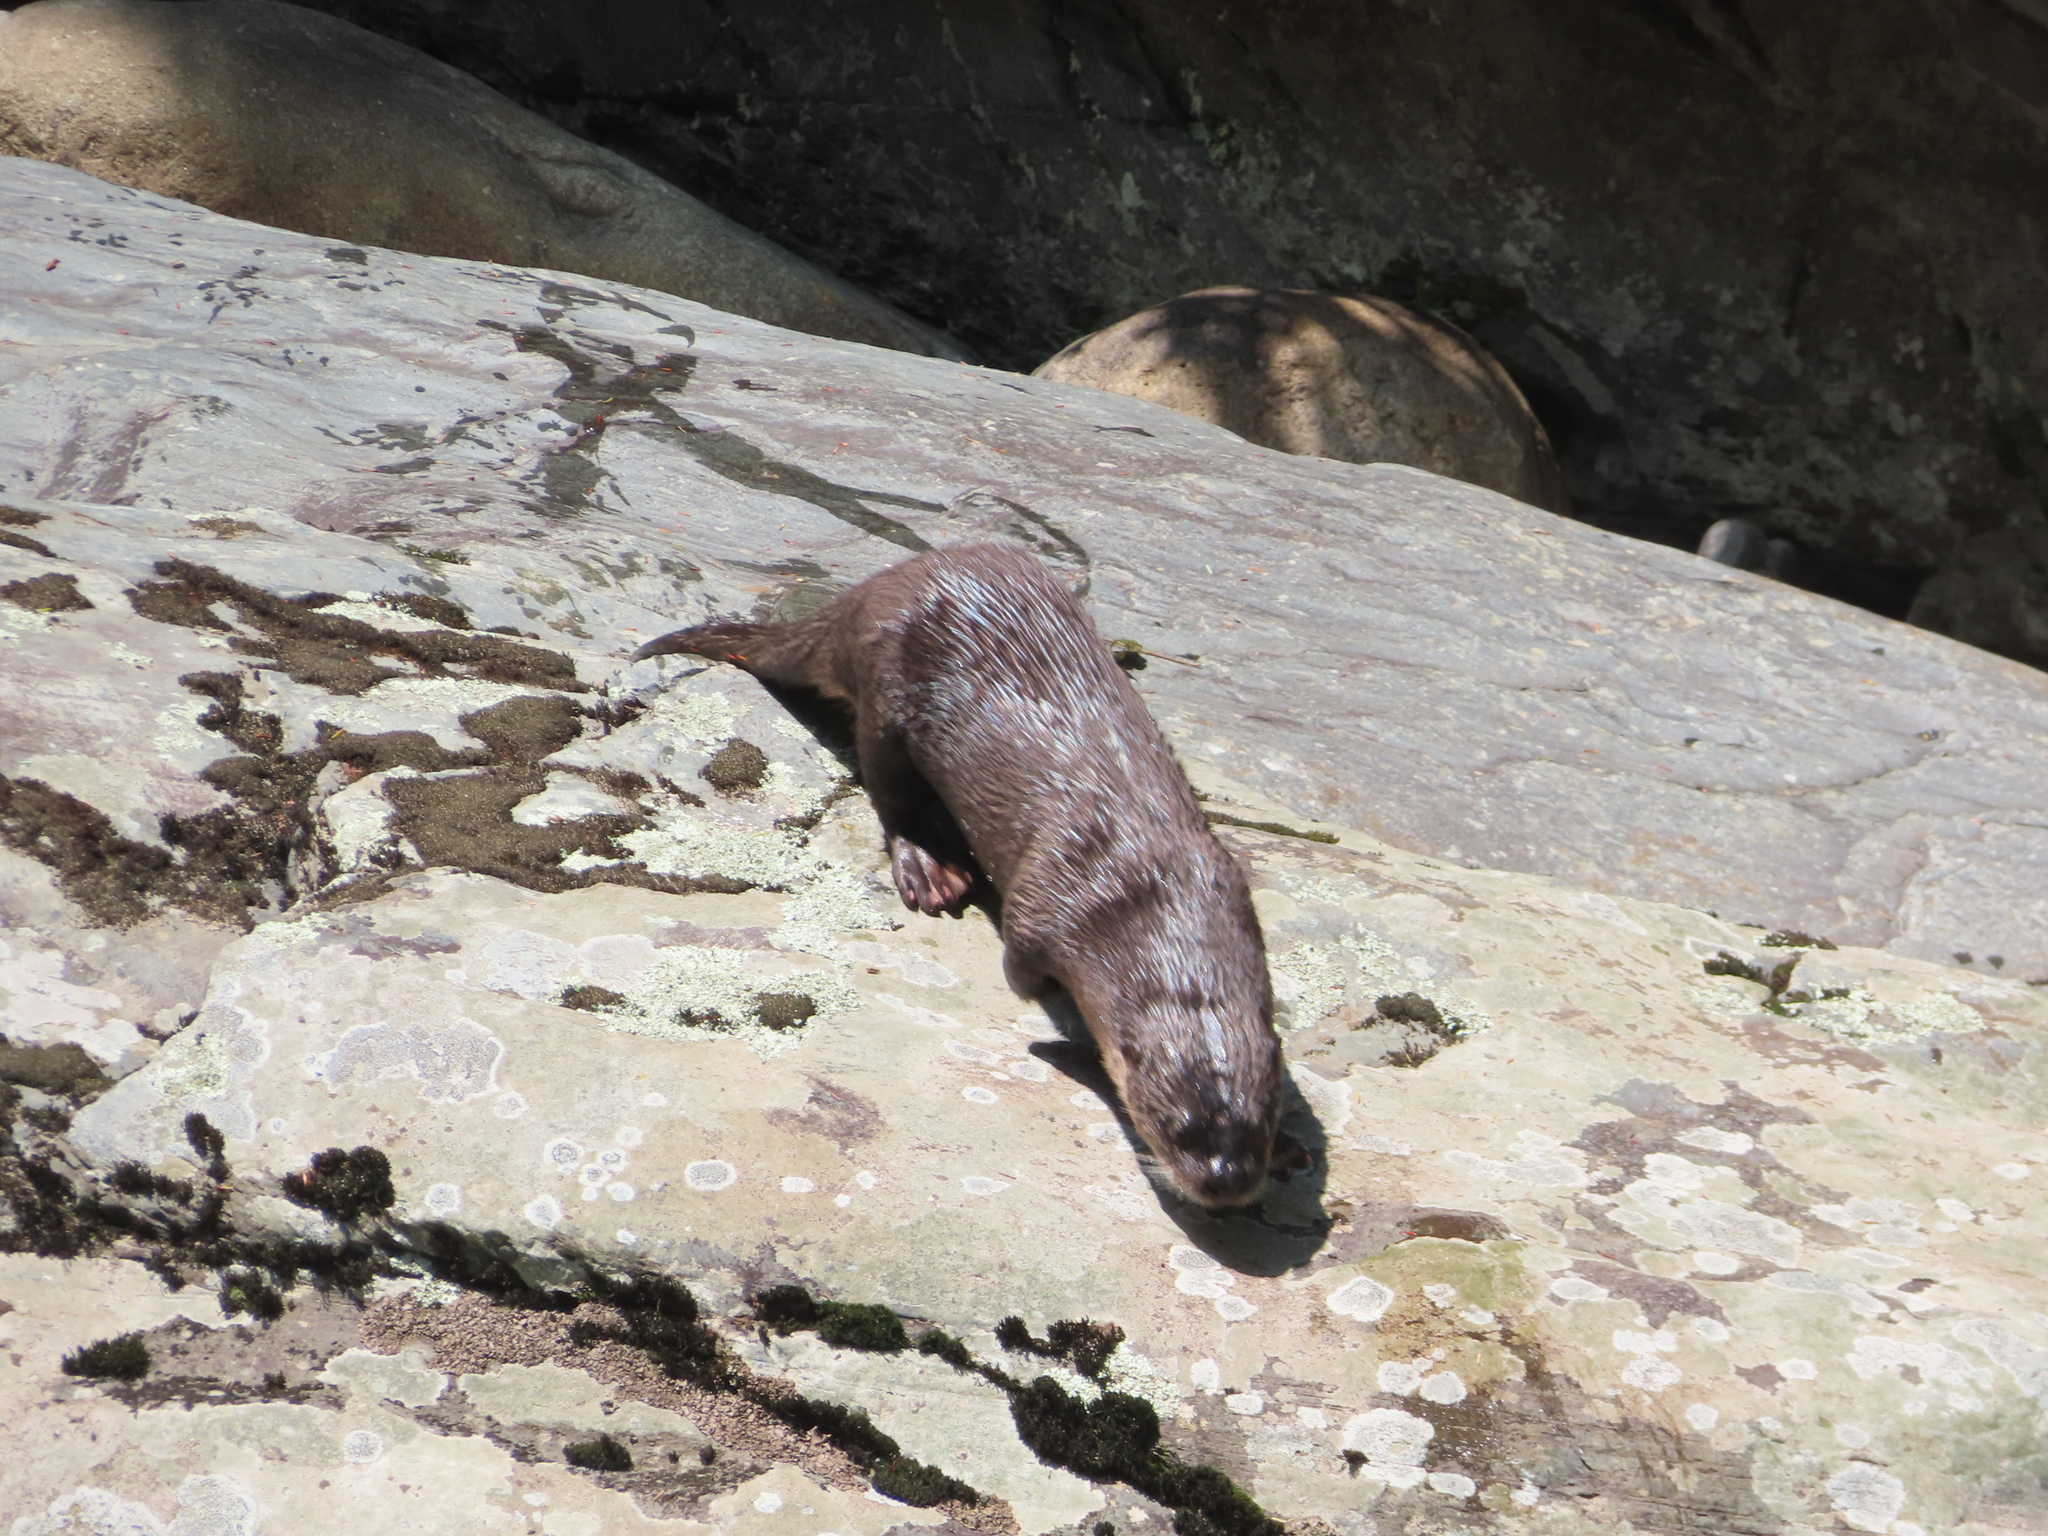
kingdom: Animalia
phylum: Chordata
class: Mammalia
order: Carnivora
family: Mustelidae
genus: Lontra
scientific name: Lontra canadensis
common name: North american river otter
